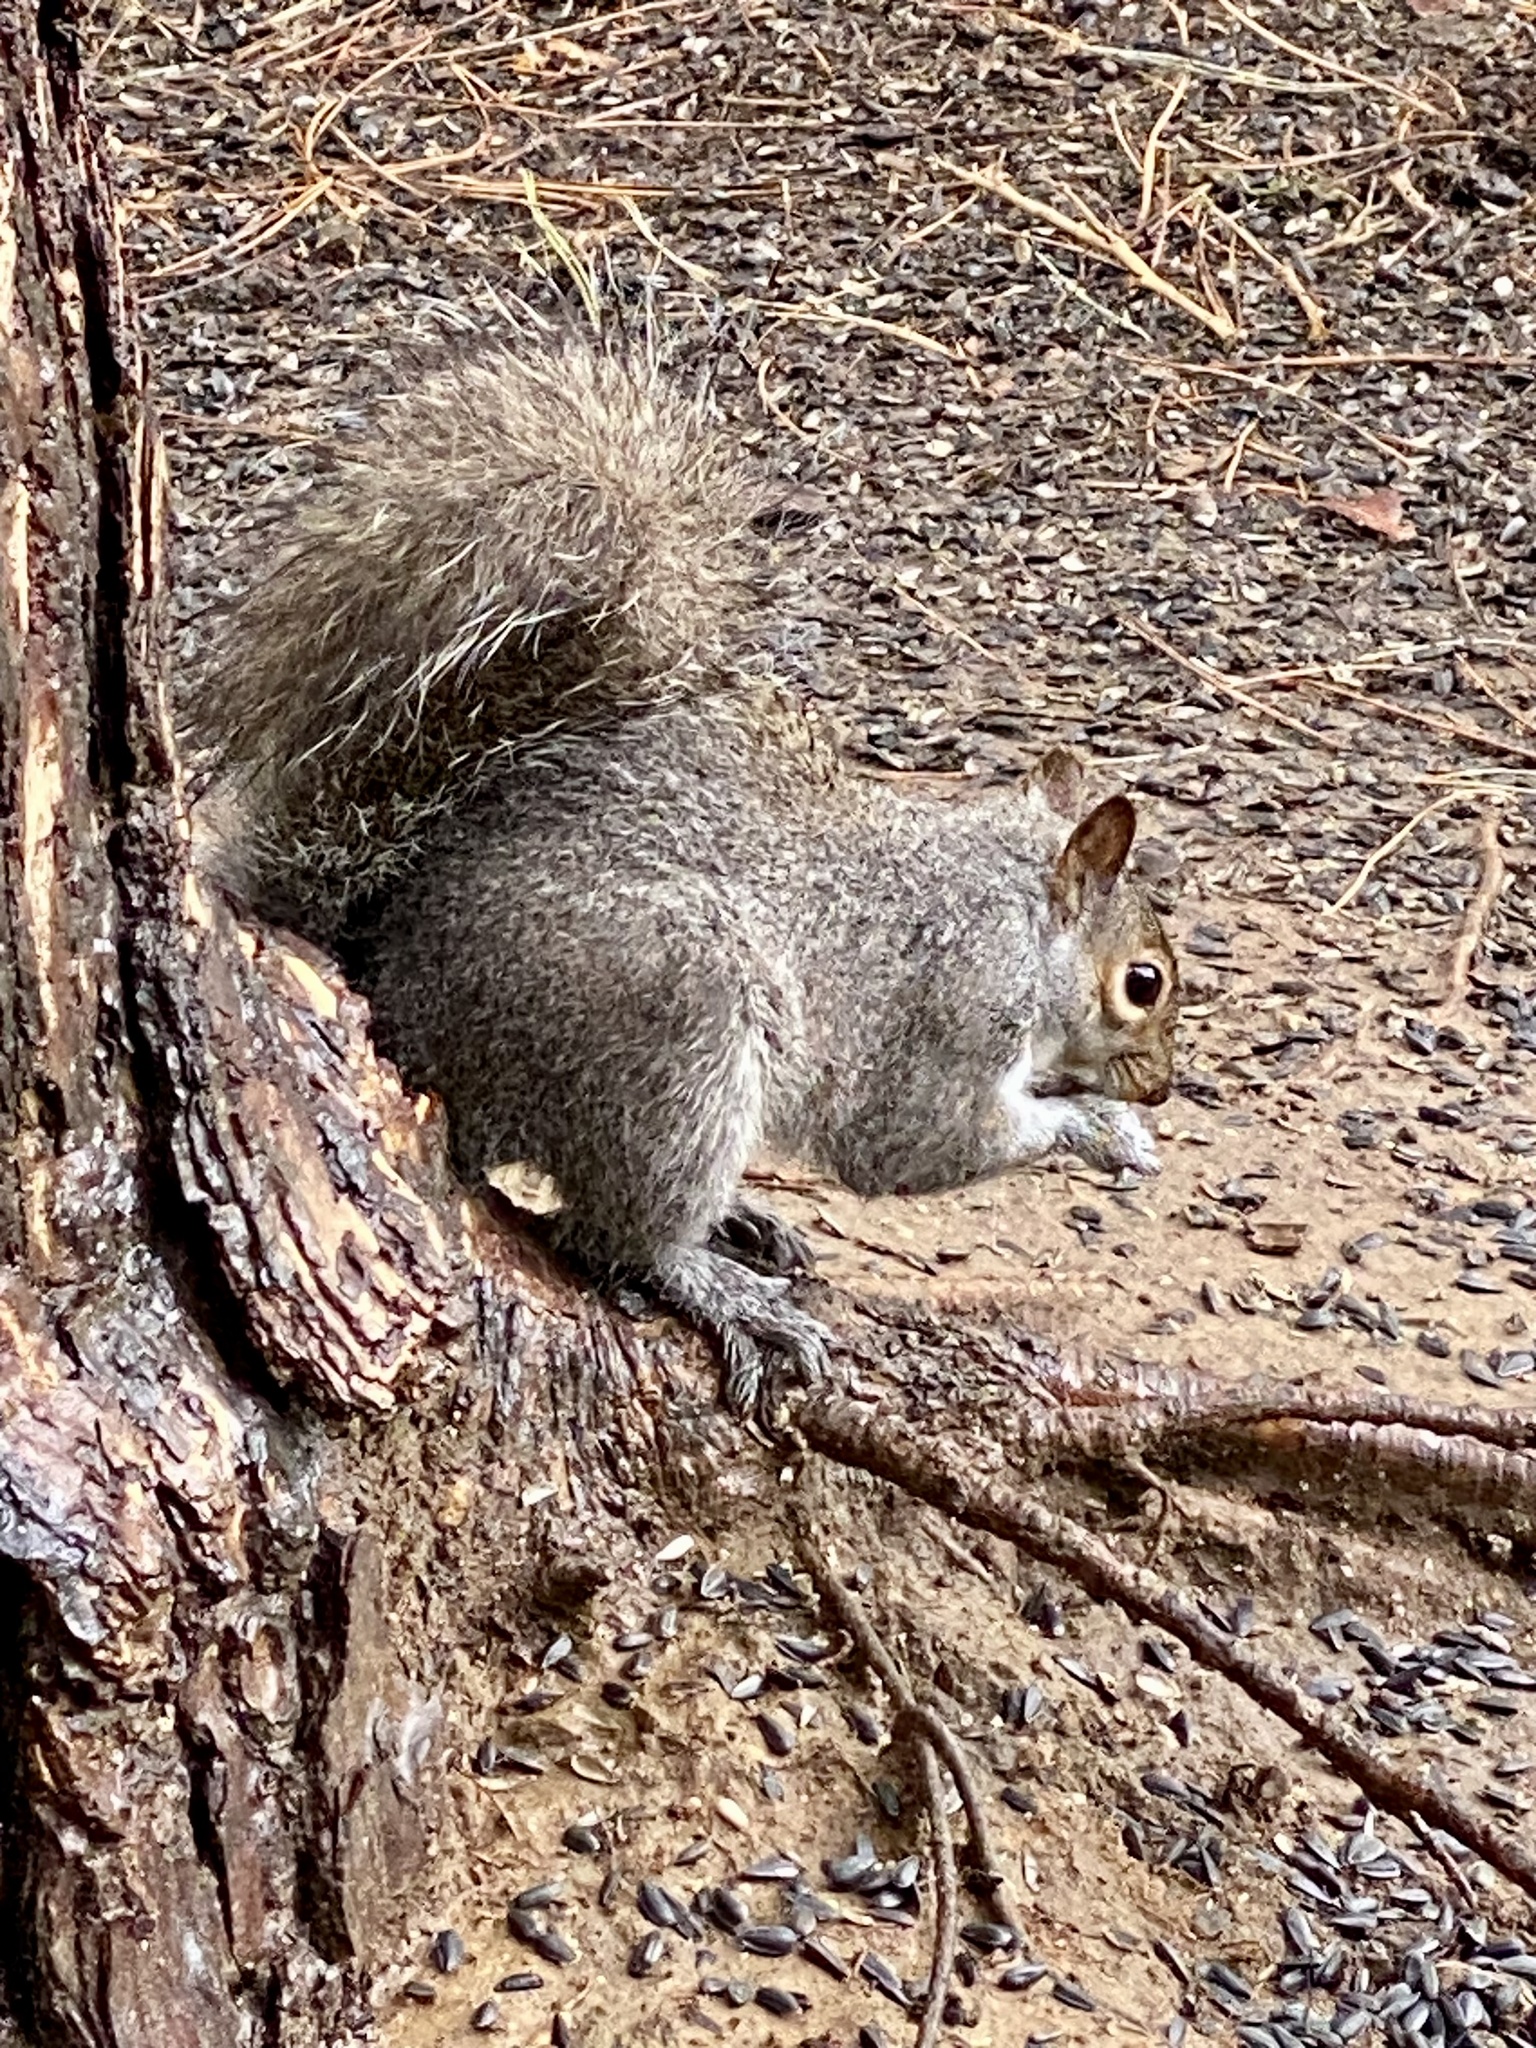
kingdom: Animalia
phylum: Chordata
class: Mammalia
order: Rodentia
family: Sciuridae
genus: Sciurus
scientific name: Sciurus carolinensis
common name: Eastern gray squirrel
